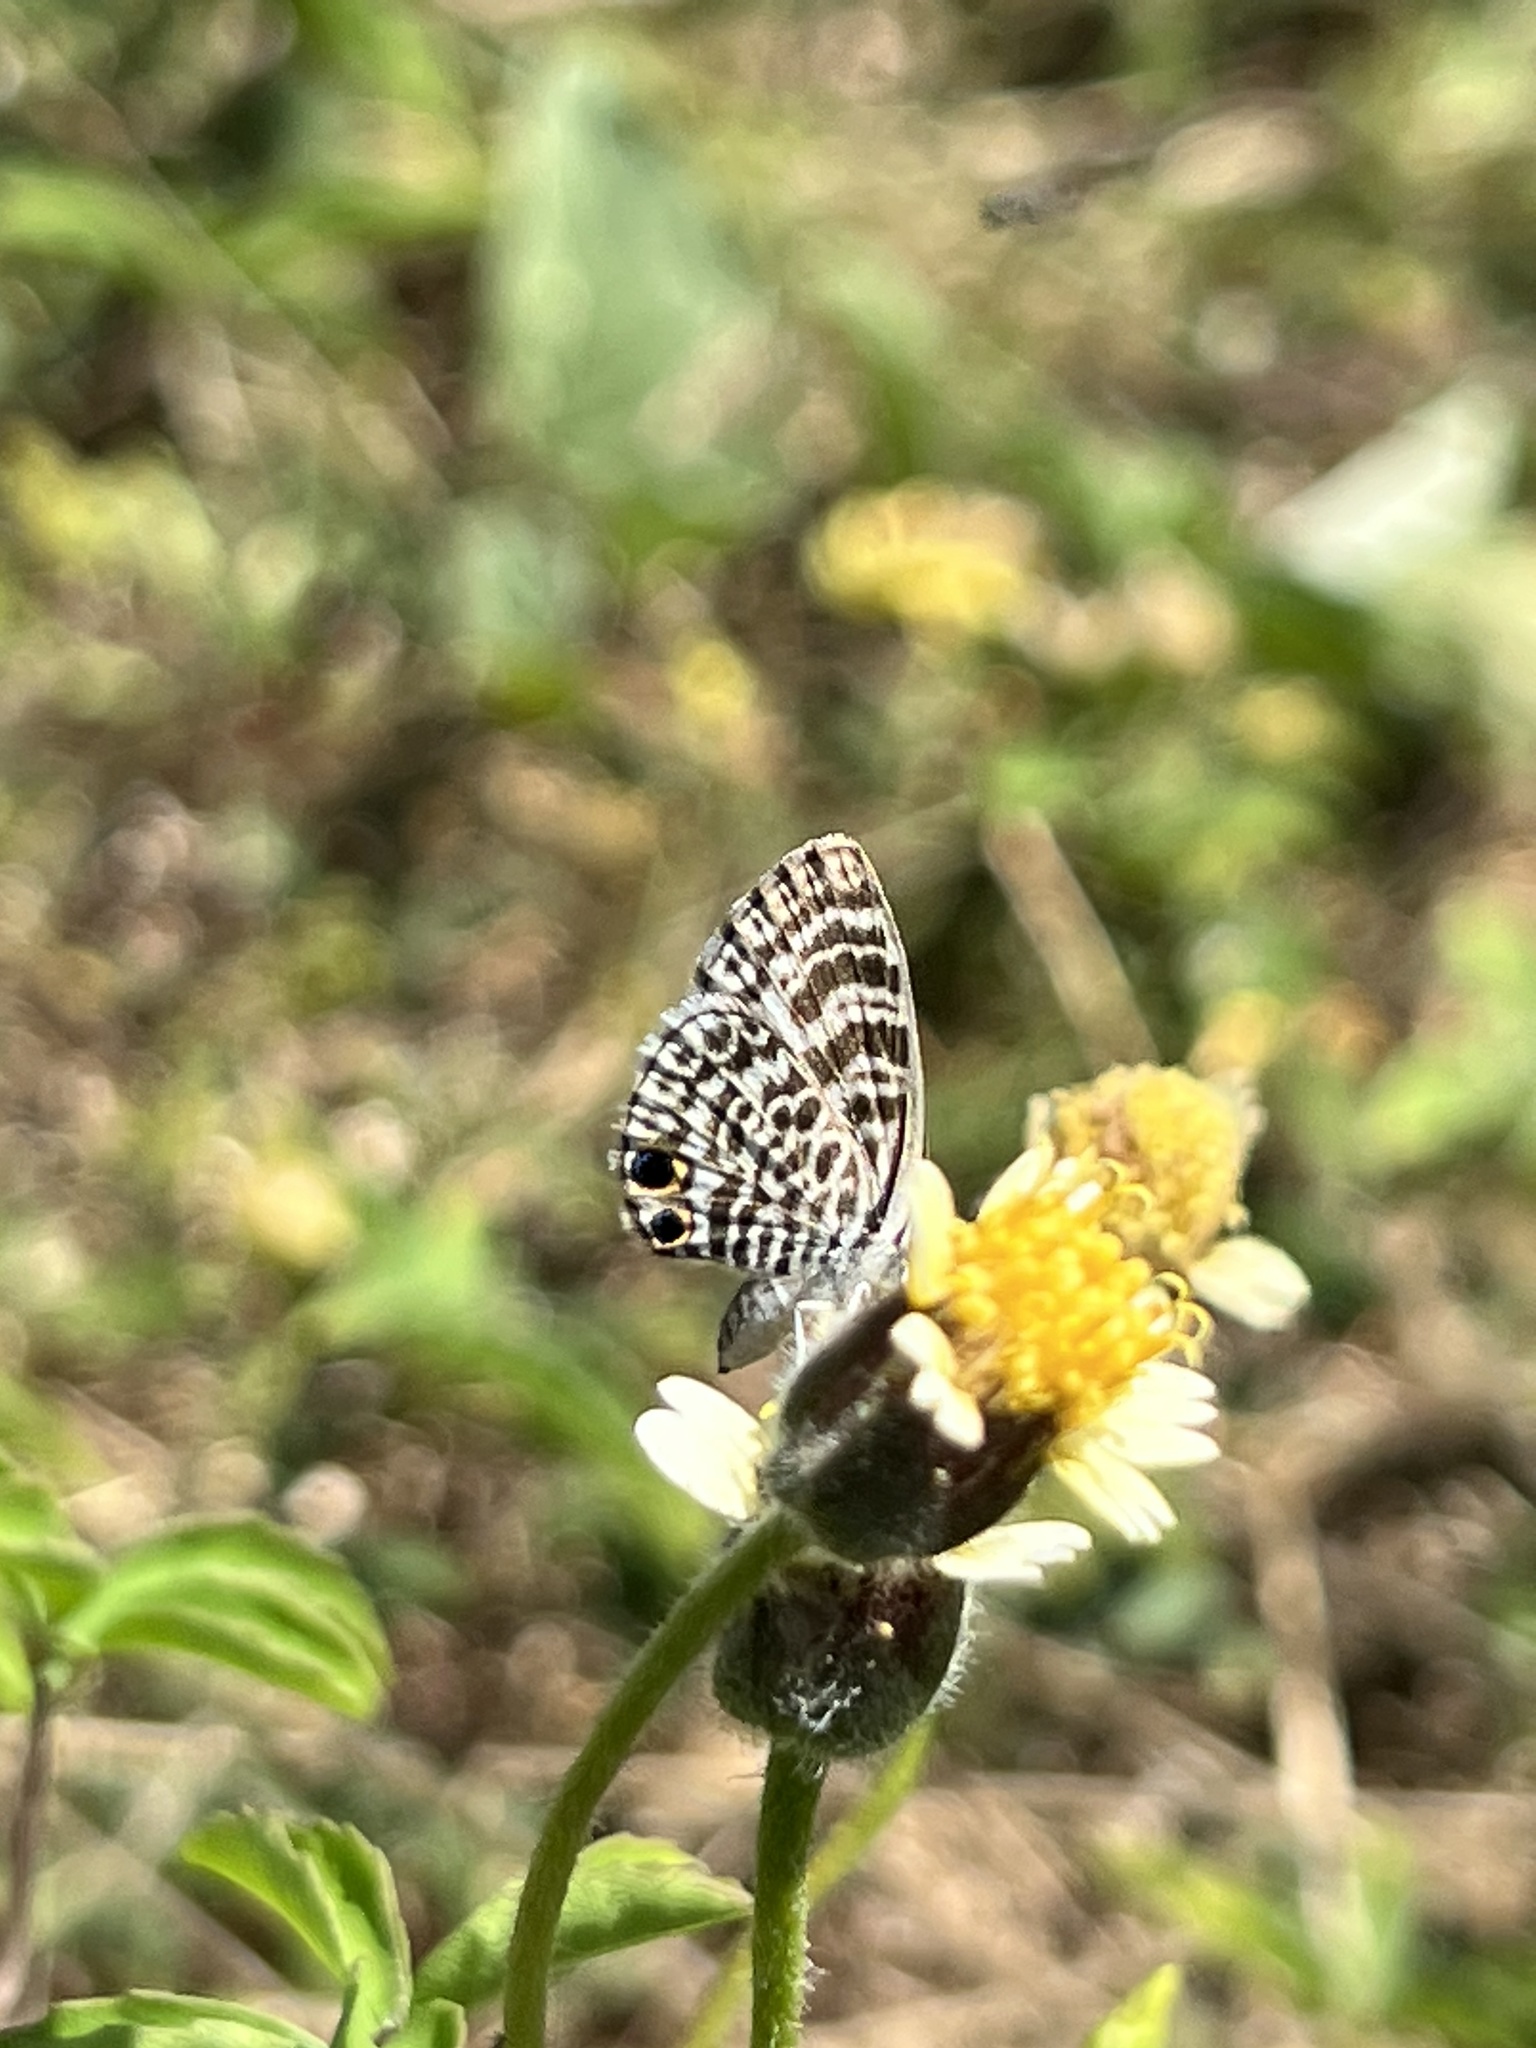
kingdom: Animalia
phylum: Arthropoda
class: Insecta
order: Lepidoptera
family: Lycaenidae
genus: Leptotes
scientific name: Leptotes cassius
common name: Cassius blue
